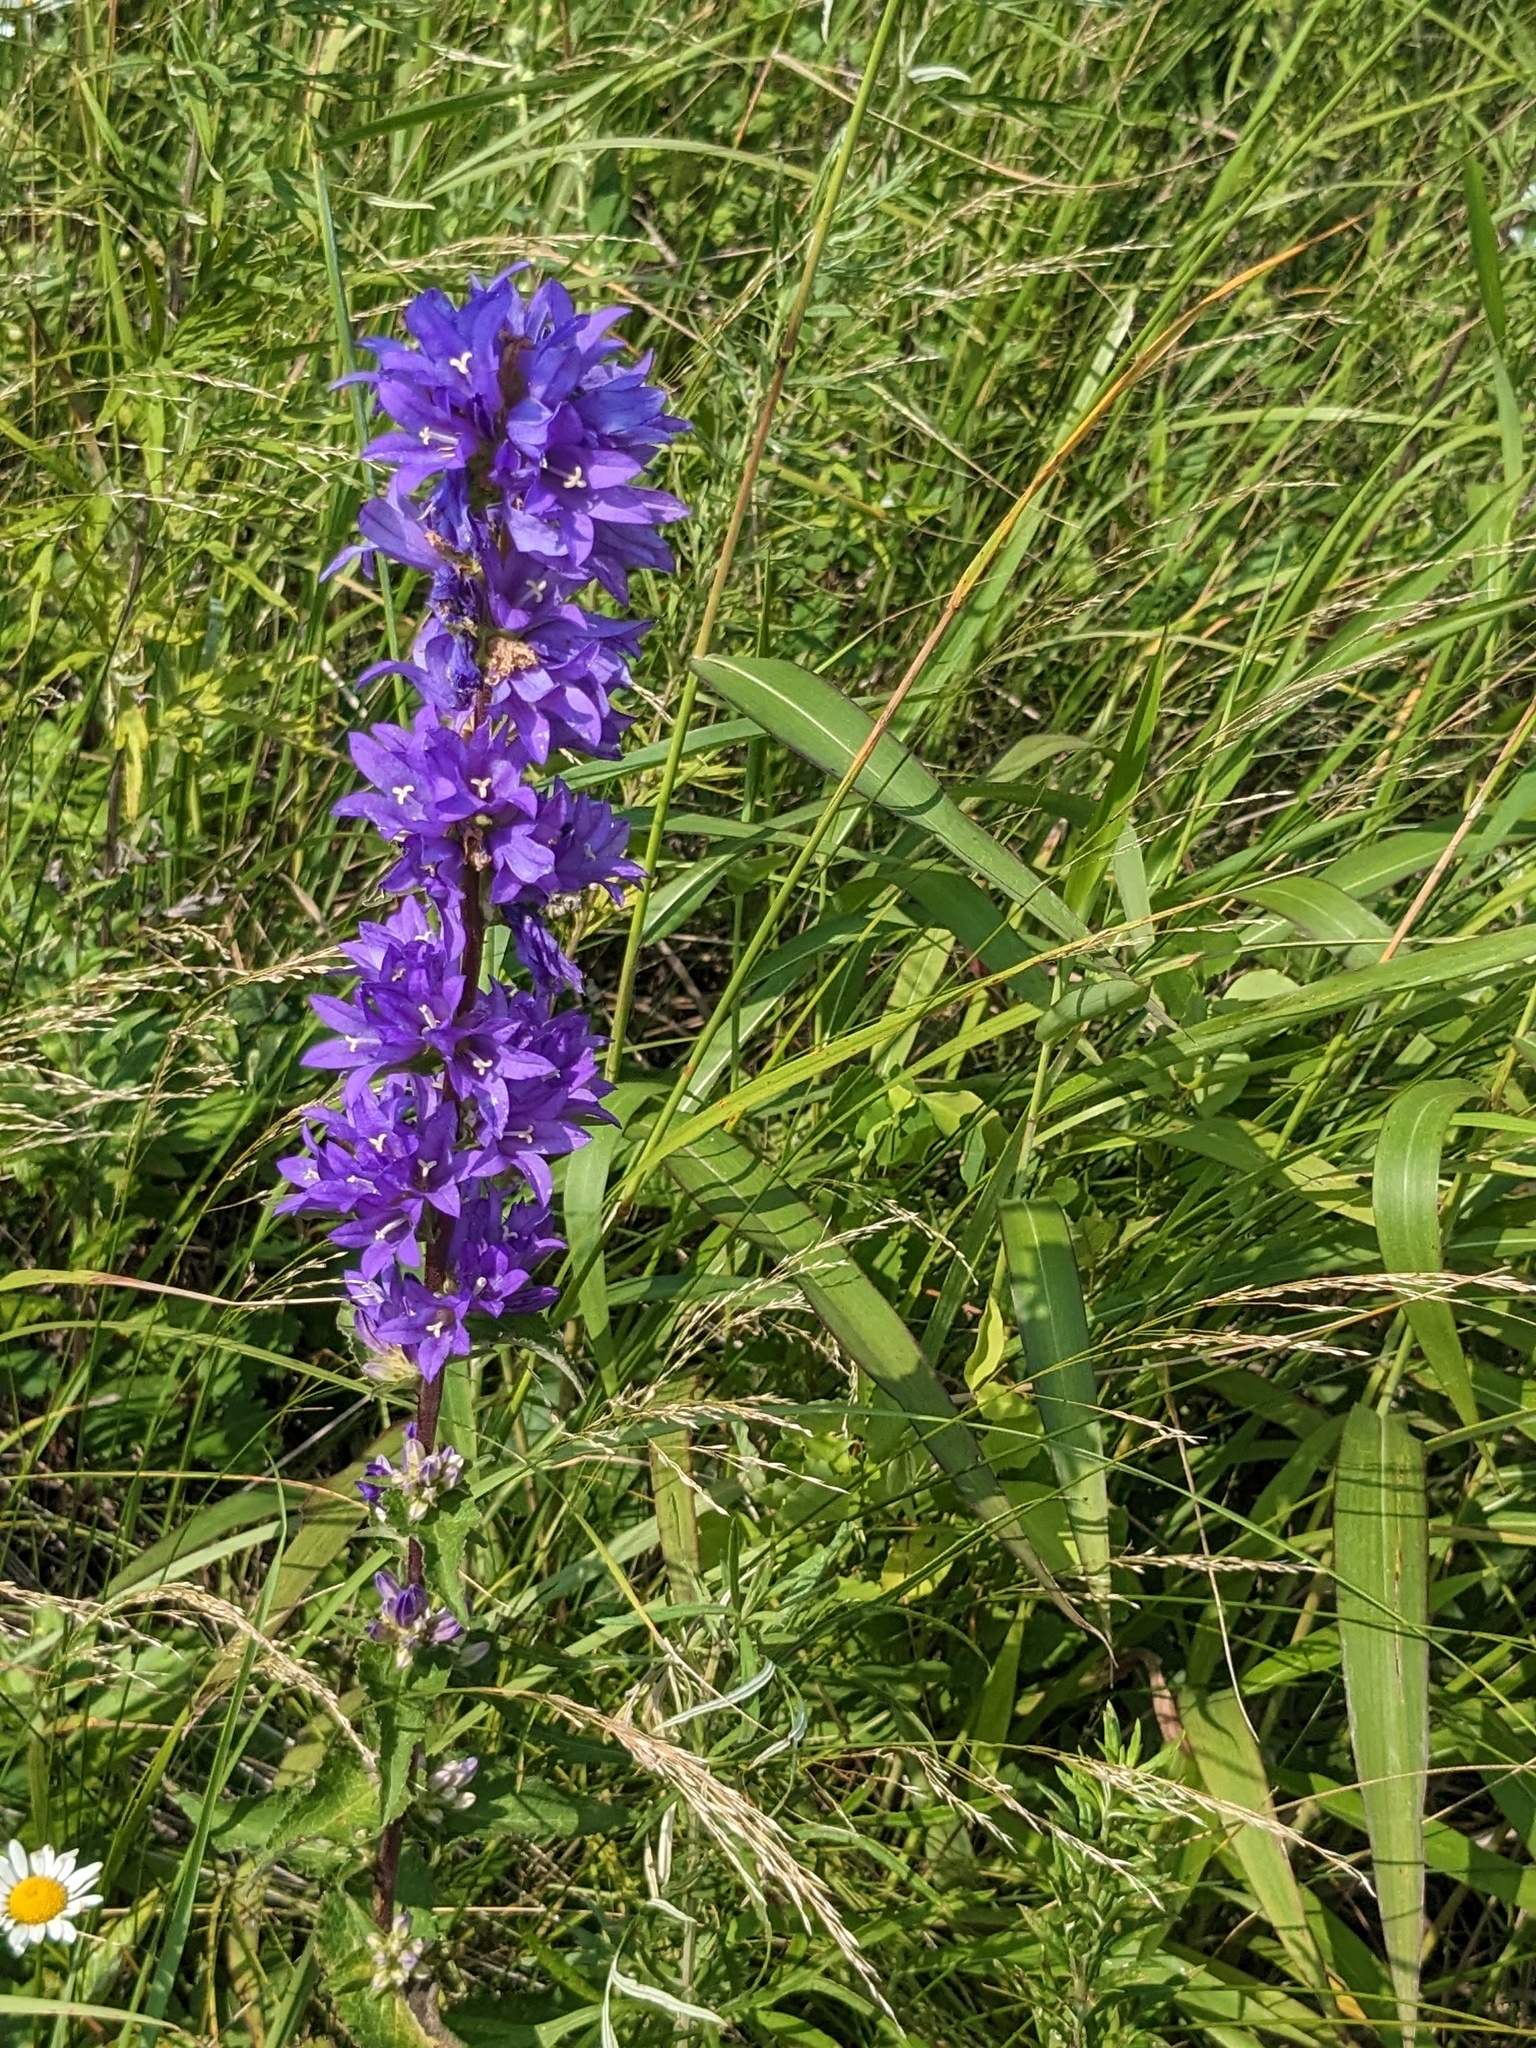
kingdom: Plantae
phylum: Tracheophyta
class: Magnoliopsida
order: Asterales
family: Campanulaceae
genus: Campanula
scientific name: Campanula glomerata
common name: Clustered bellflower
